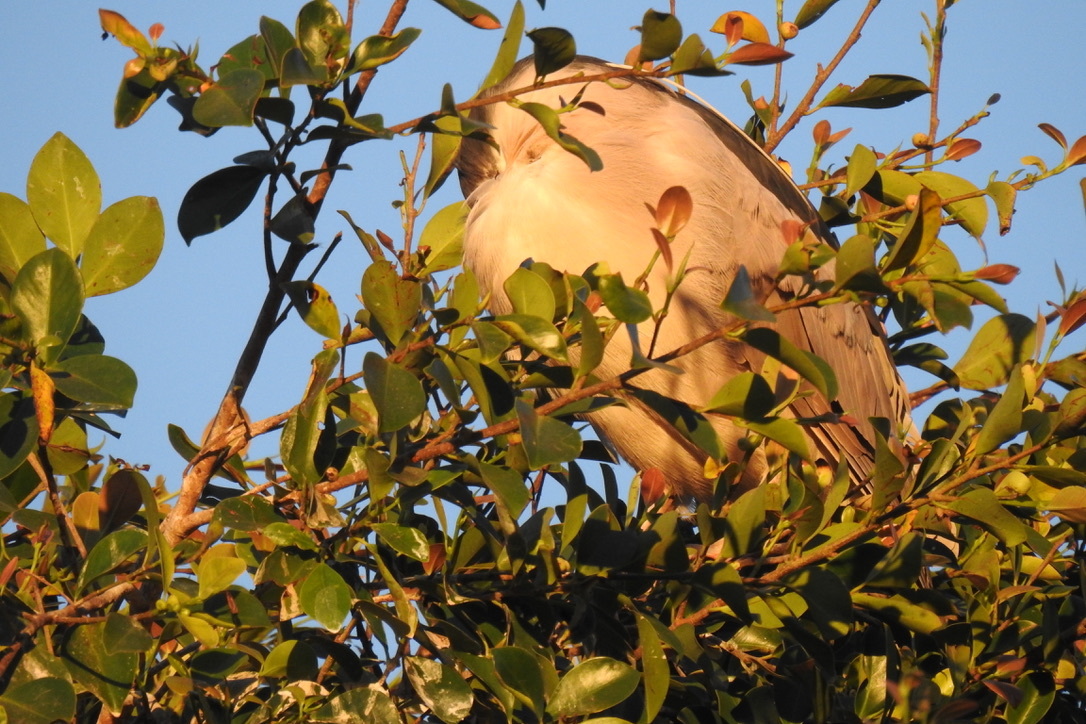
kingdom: Animalia
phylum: Chordata
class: Aves
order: Pelecaniformes
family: Ardeidae
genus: Nycticorax
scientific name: Nycticorax nycticorax
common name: Black-crowned night heron
